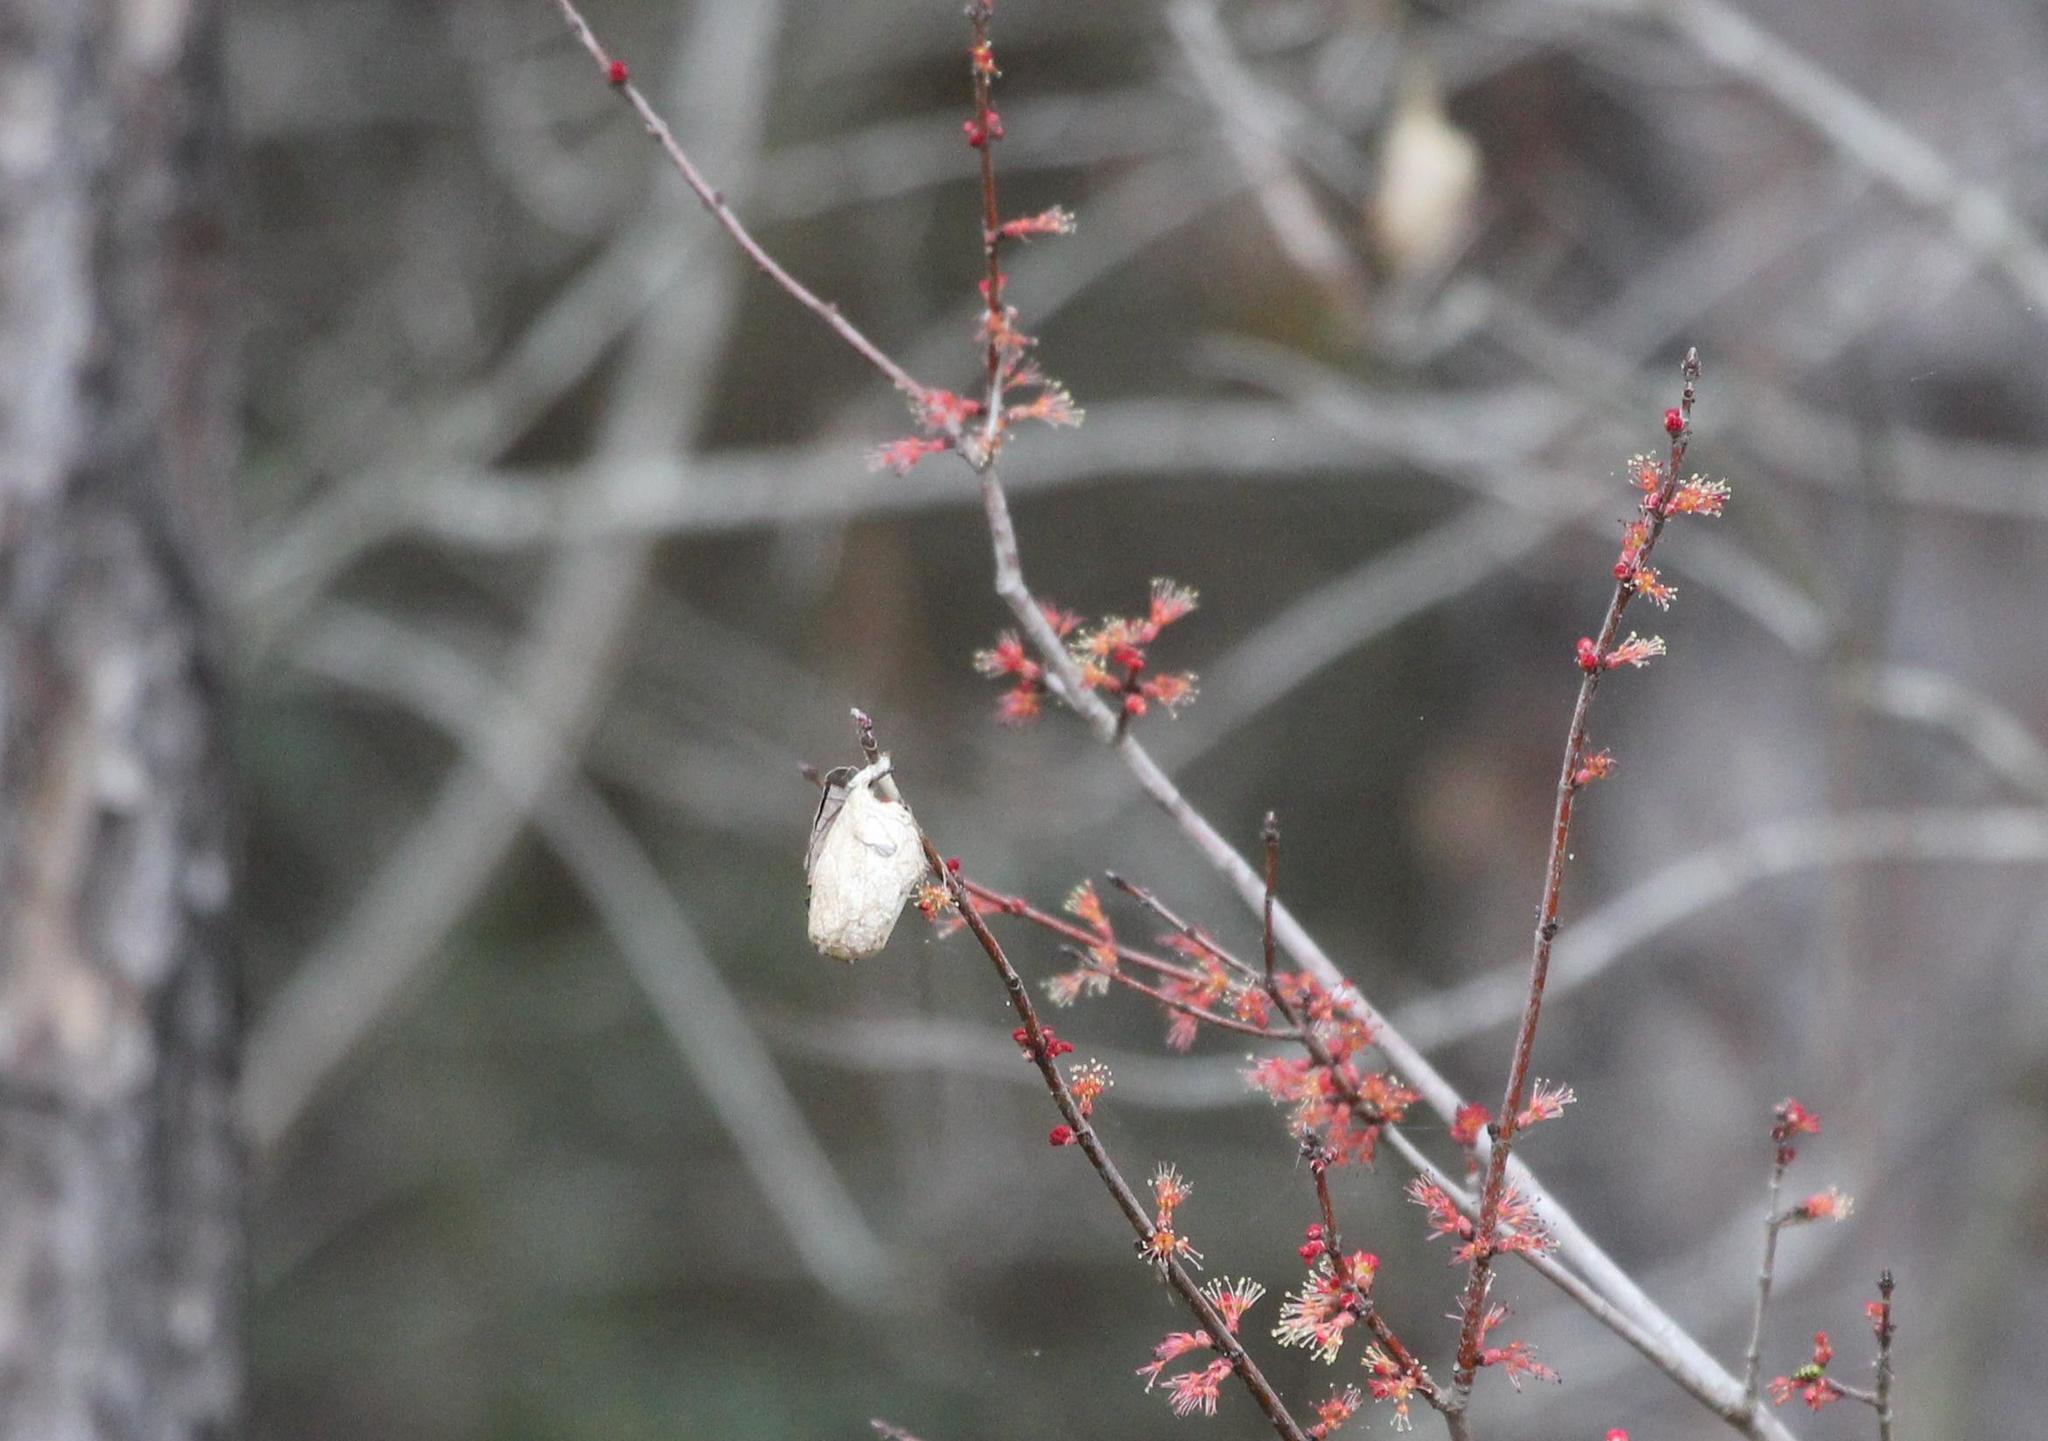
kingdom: Animalia
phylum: Arthropoda
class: Insecta
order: Lepidoptera
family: Saturniidae
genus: Antheraea
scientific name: Antheraea polyphemus
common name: Polyphemus moth
